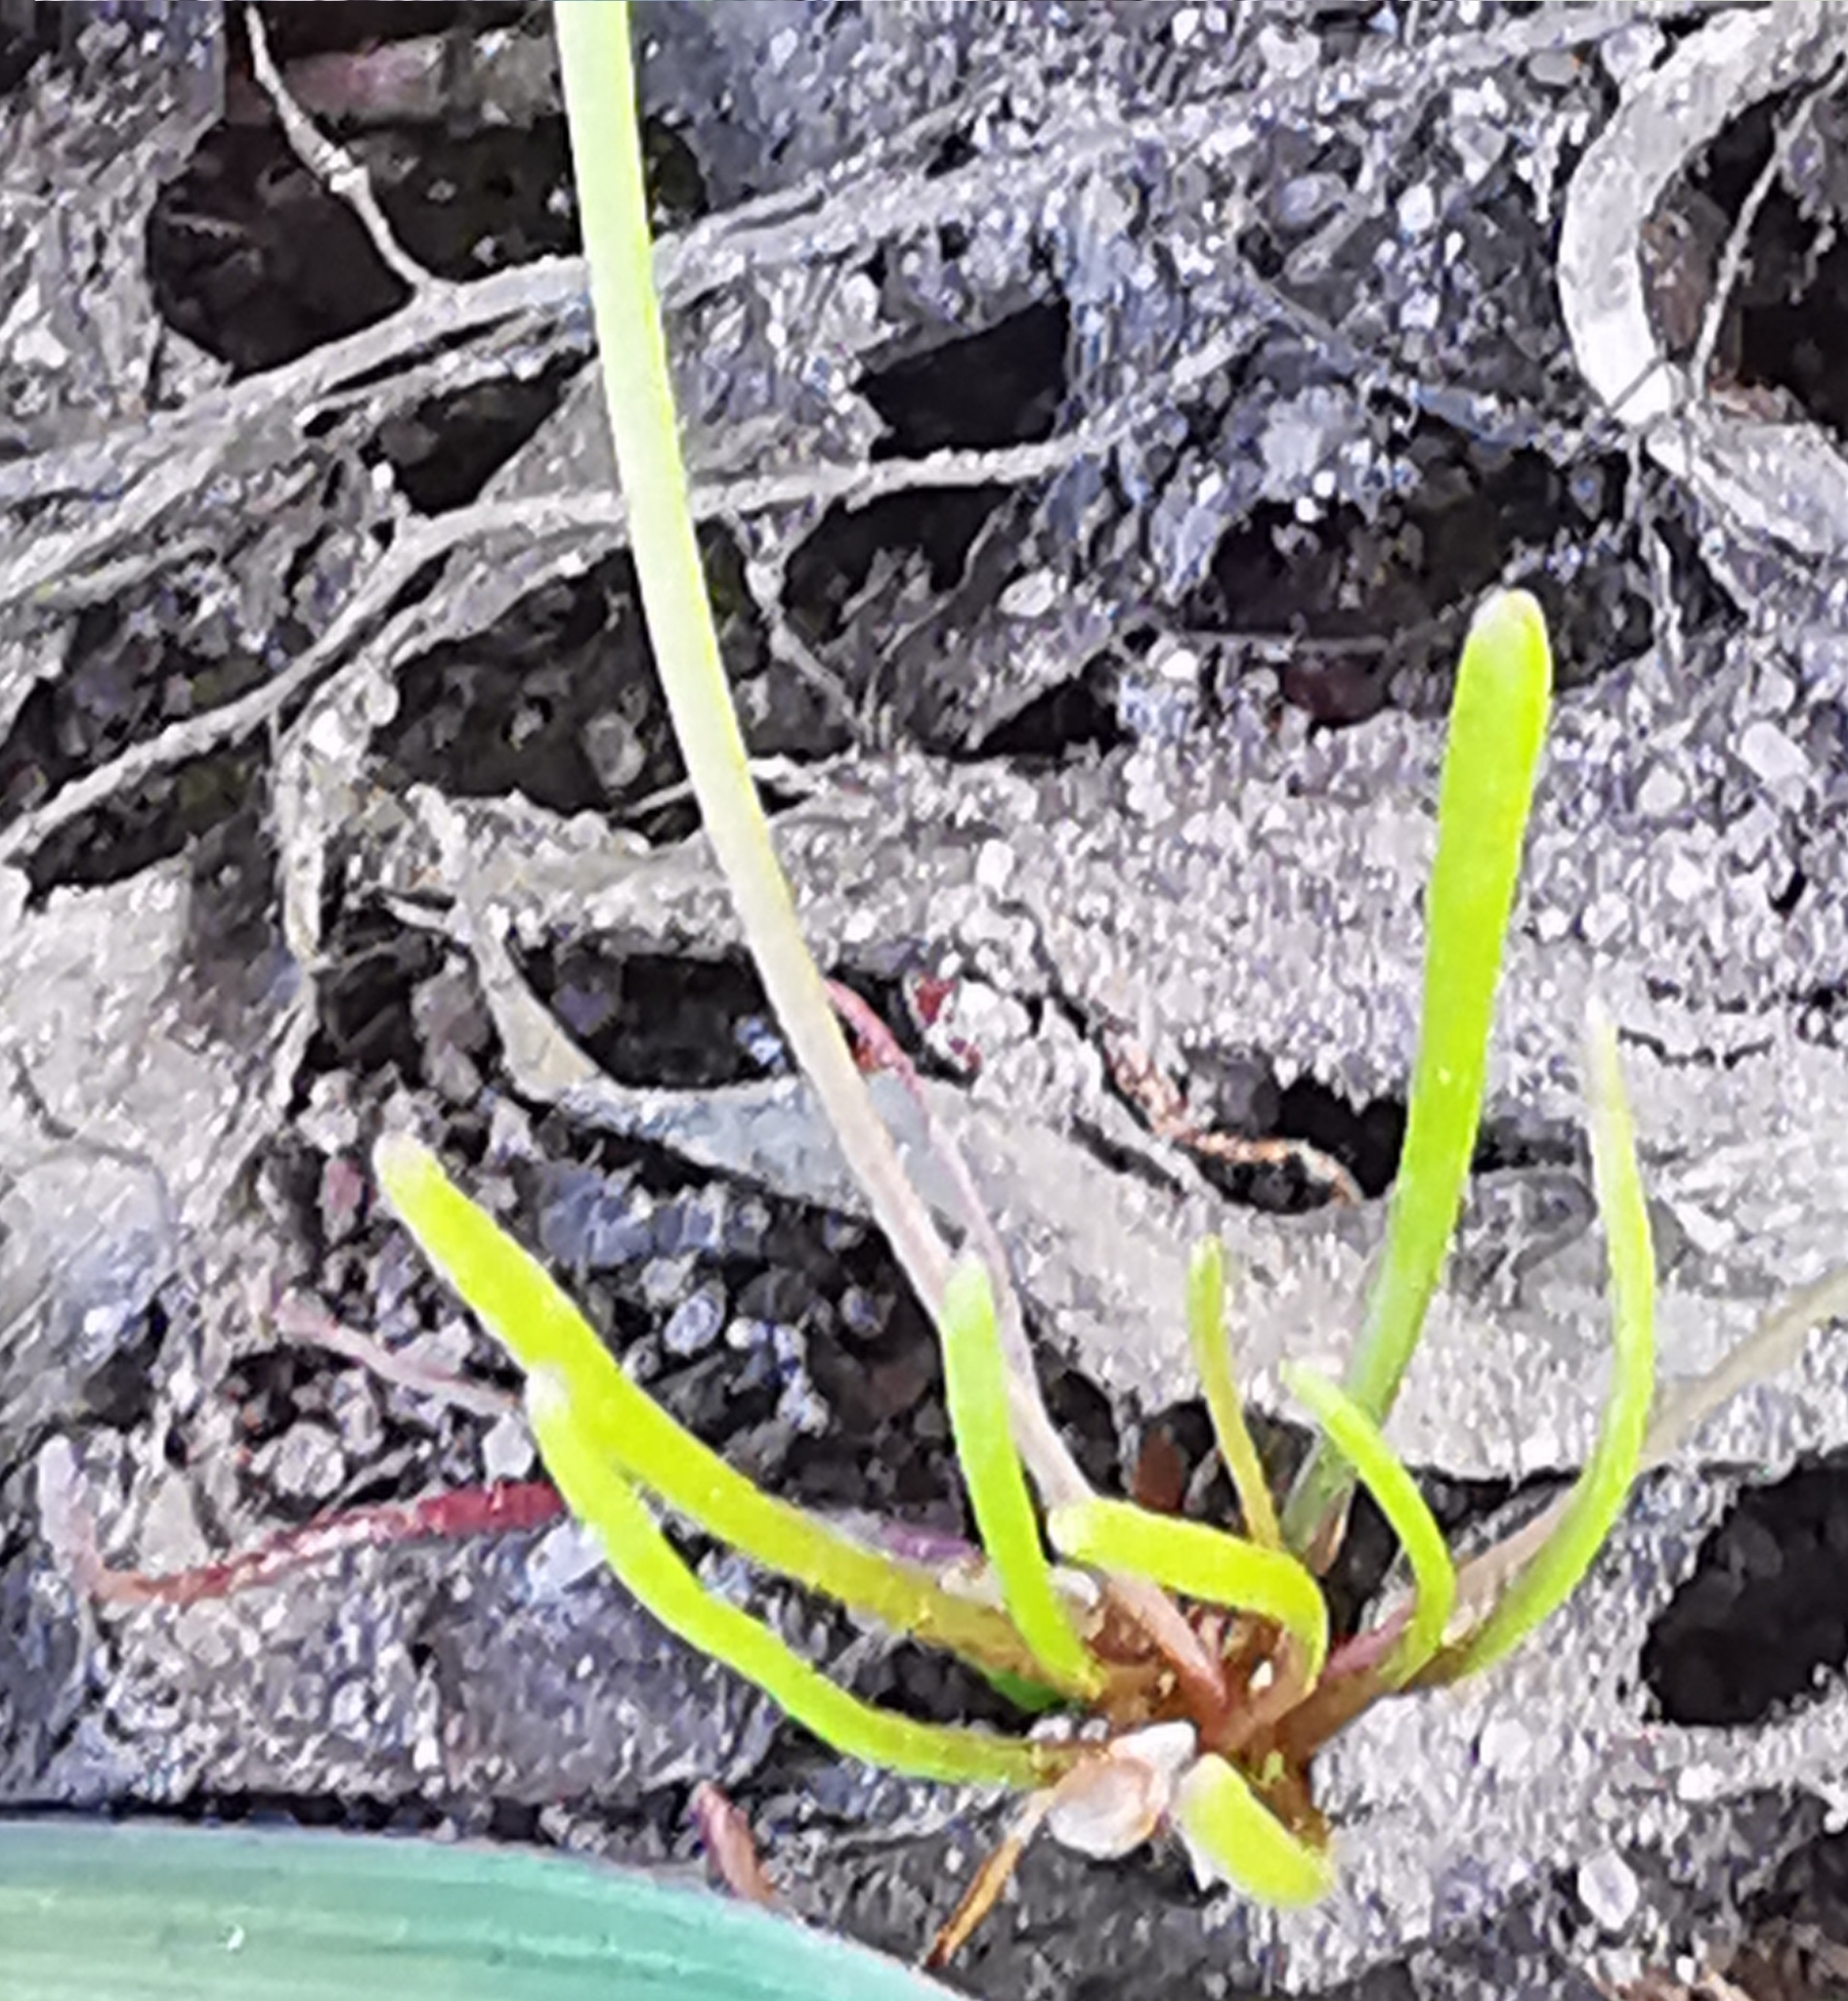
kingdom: Plantae
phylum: Tracheophyta
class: Magnoliopsida
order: Ranunculales
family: Ranunculaceae
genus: Myosurus
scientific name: Myosurus minimus
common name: Mousetail
